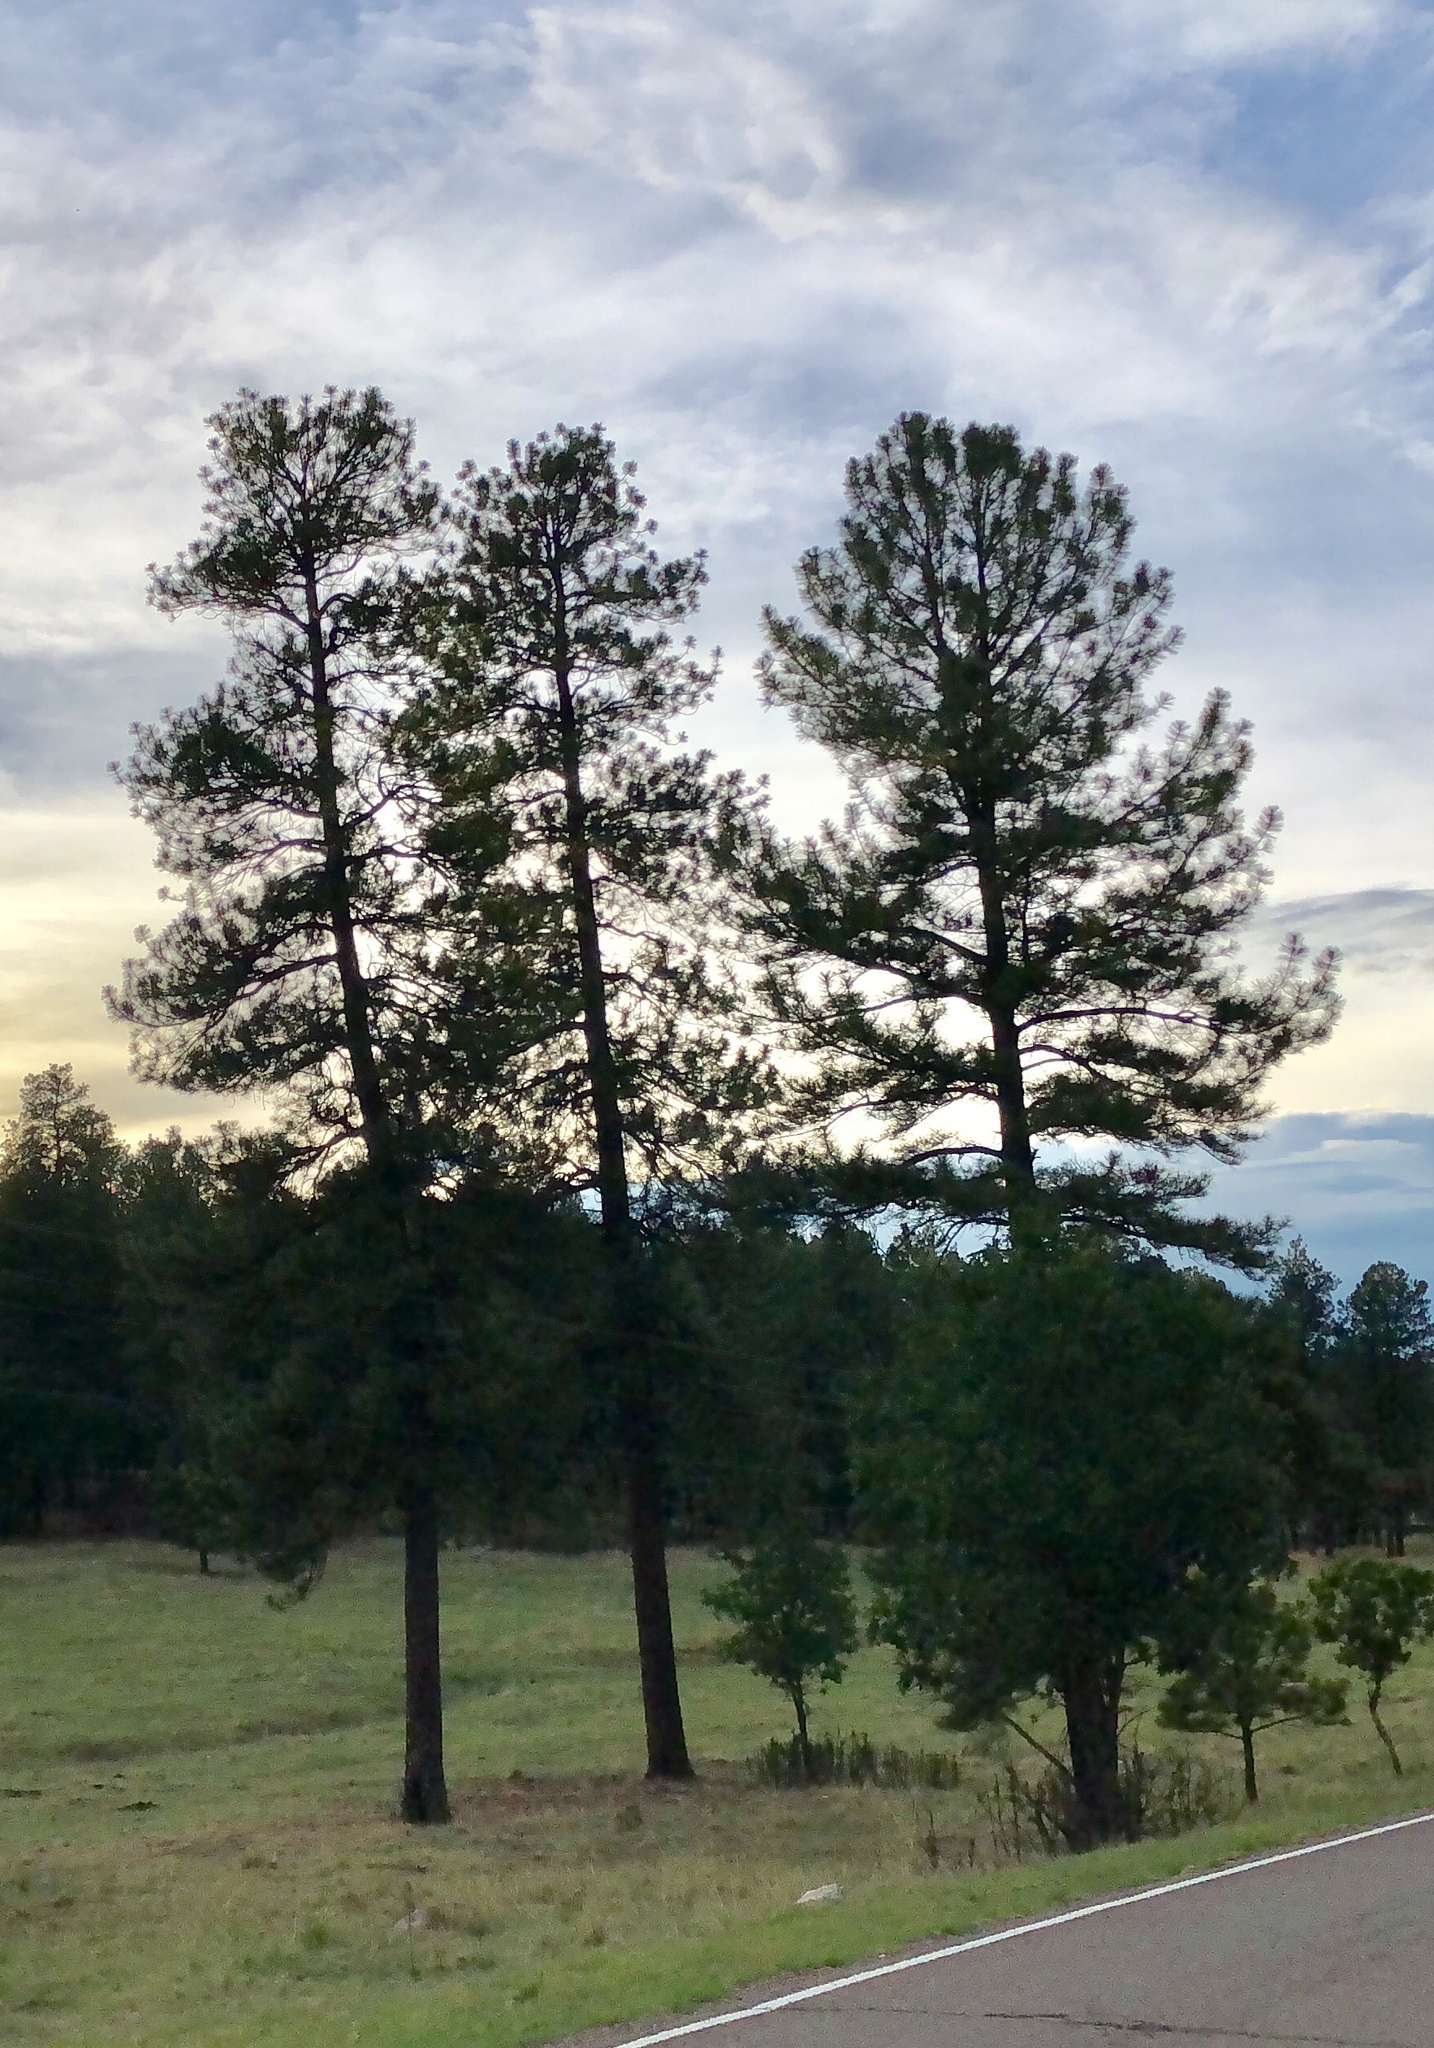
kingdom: Plantae
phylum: Tracheophyta
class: Pinopsida
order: Pinales
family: Pinaceae
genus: Pinus
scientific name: Pinus ponderosa
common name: Western yellow-pine
